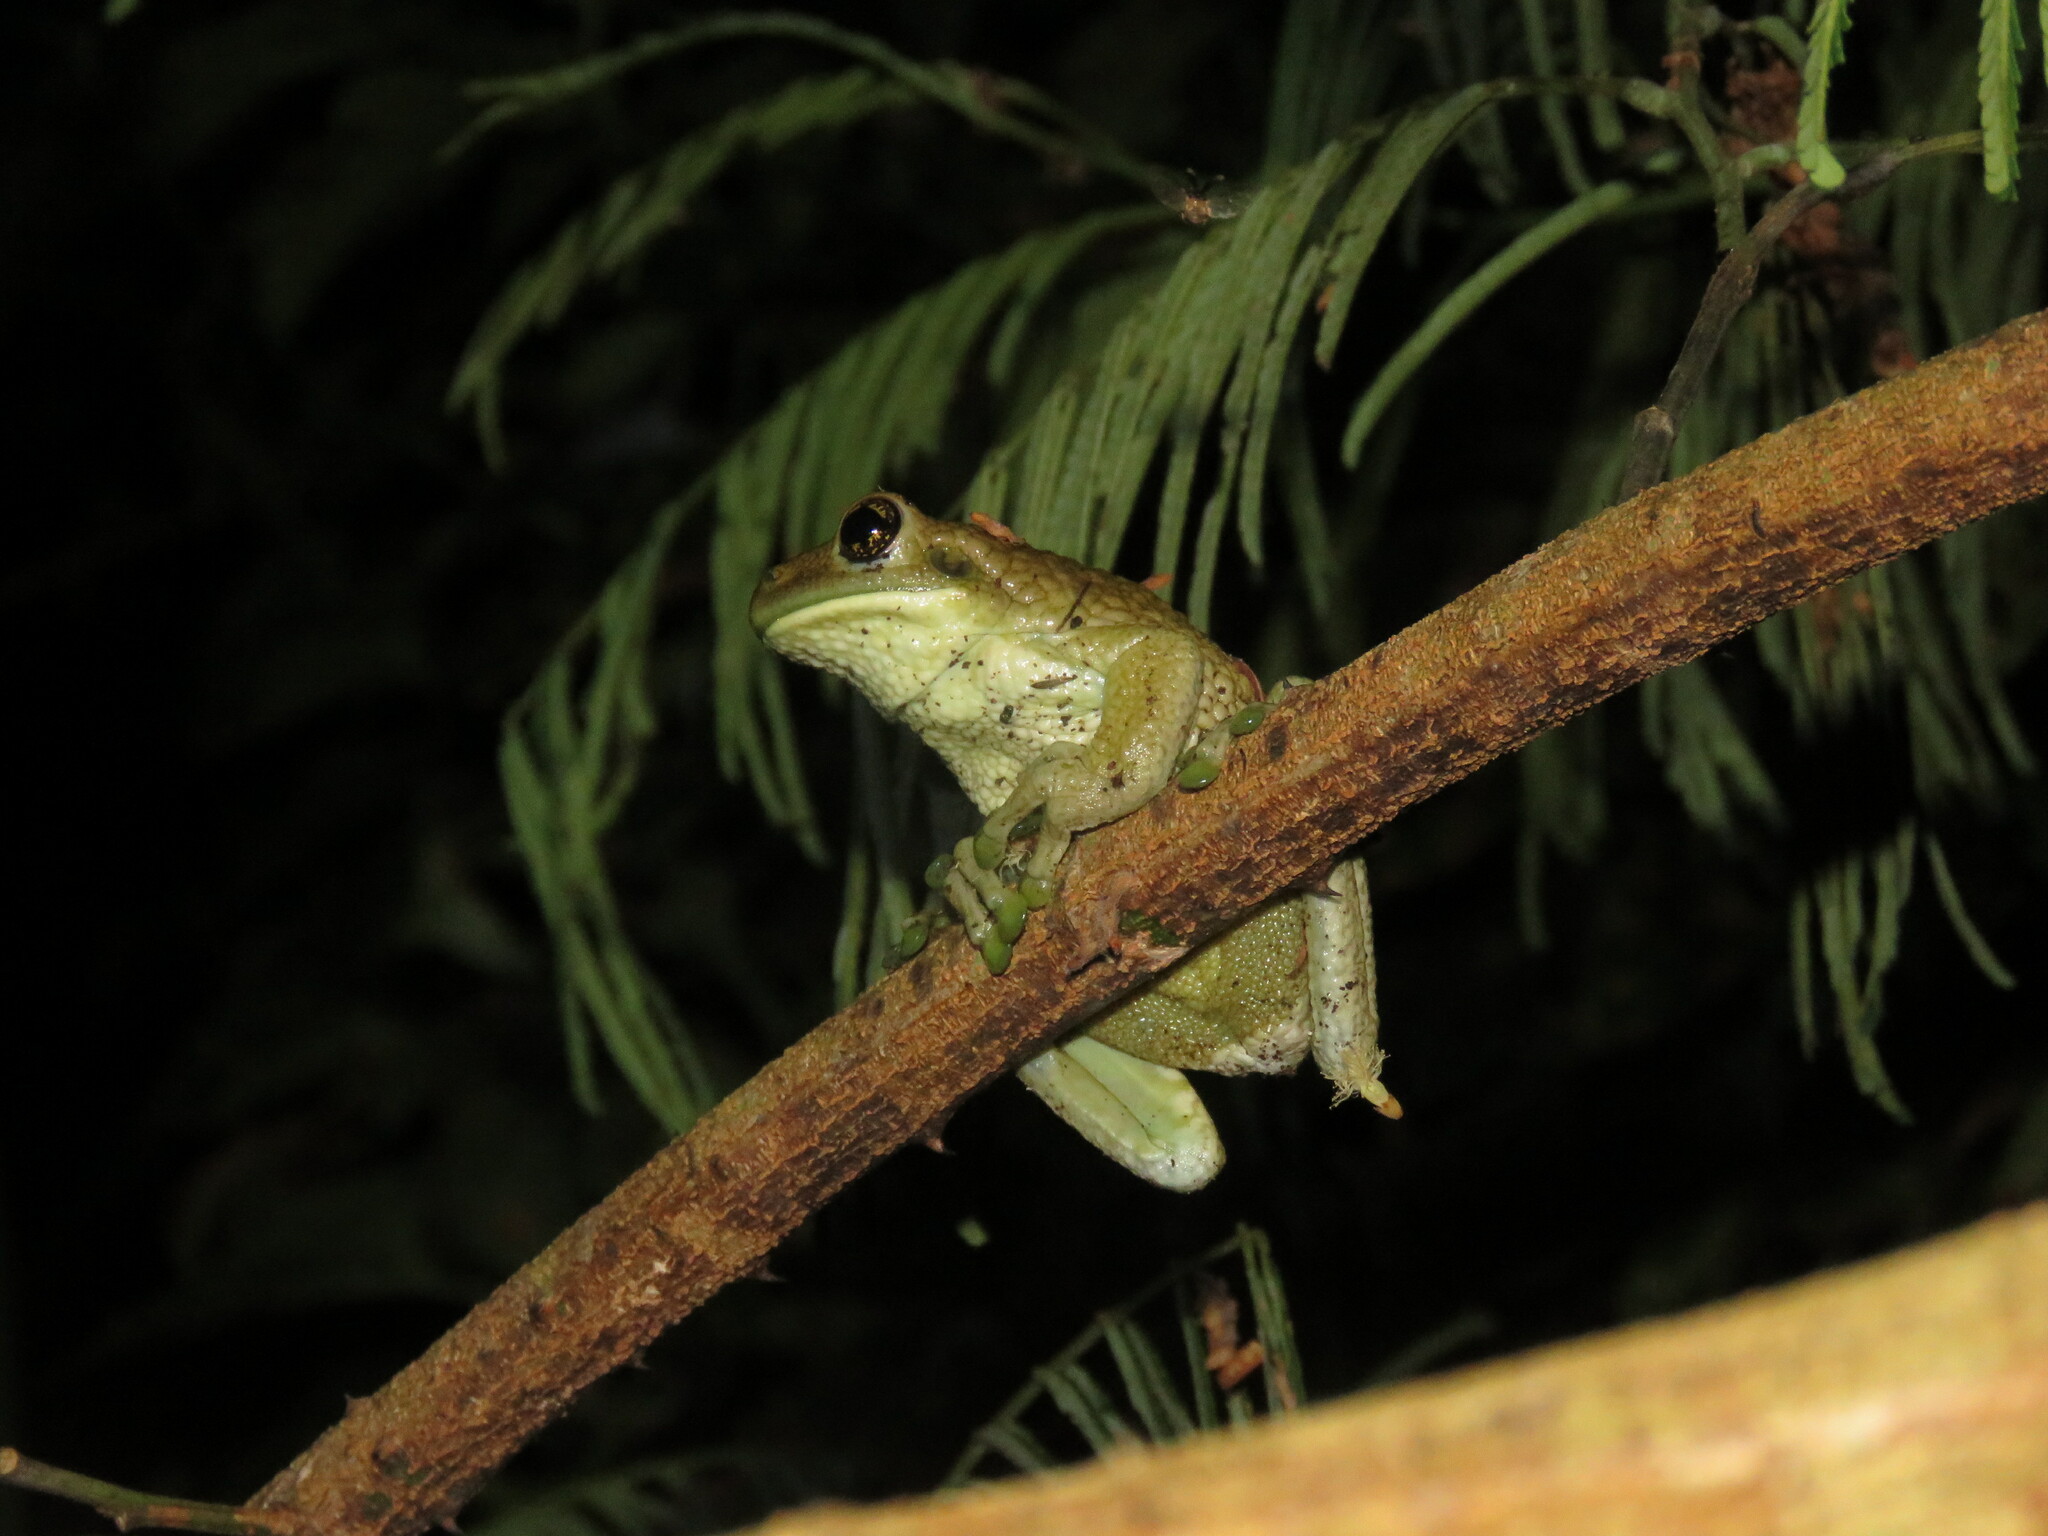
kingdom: Animalia
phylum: Chordata
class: Amphibia
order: Anura
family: Hylidae
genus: Trachycephalus
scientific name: Trachycephalus typhonius
